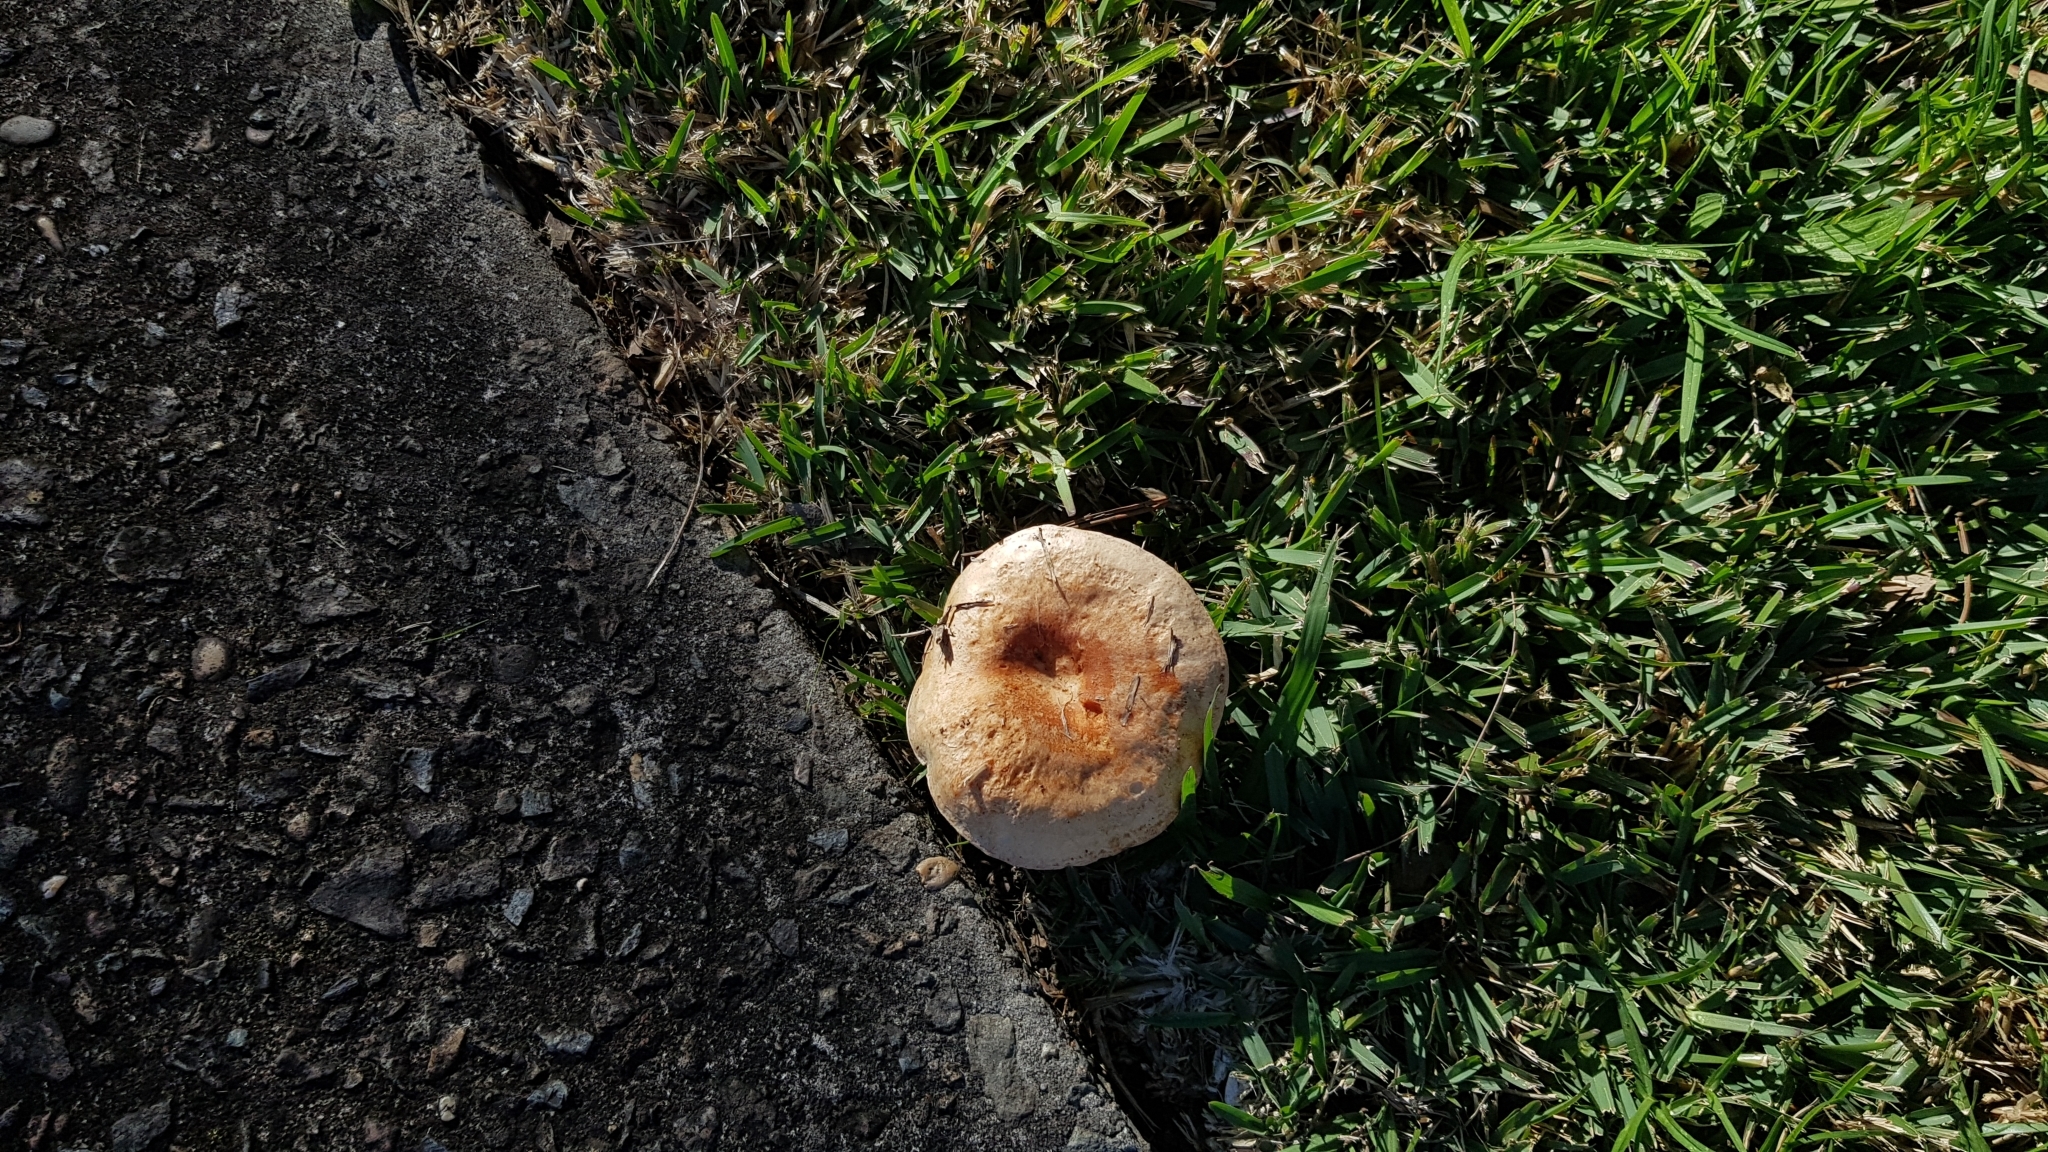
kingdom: Fungi
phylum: Basidiomycota
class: Agaricomycetes
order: Russulales
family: Russulaceae
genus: Lactarius
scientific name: Lactarius deliciosus
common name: Saffron milk-cap
